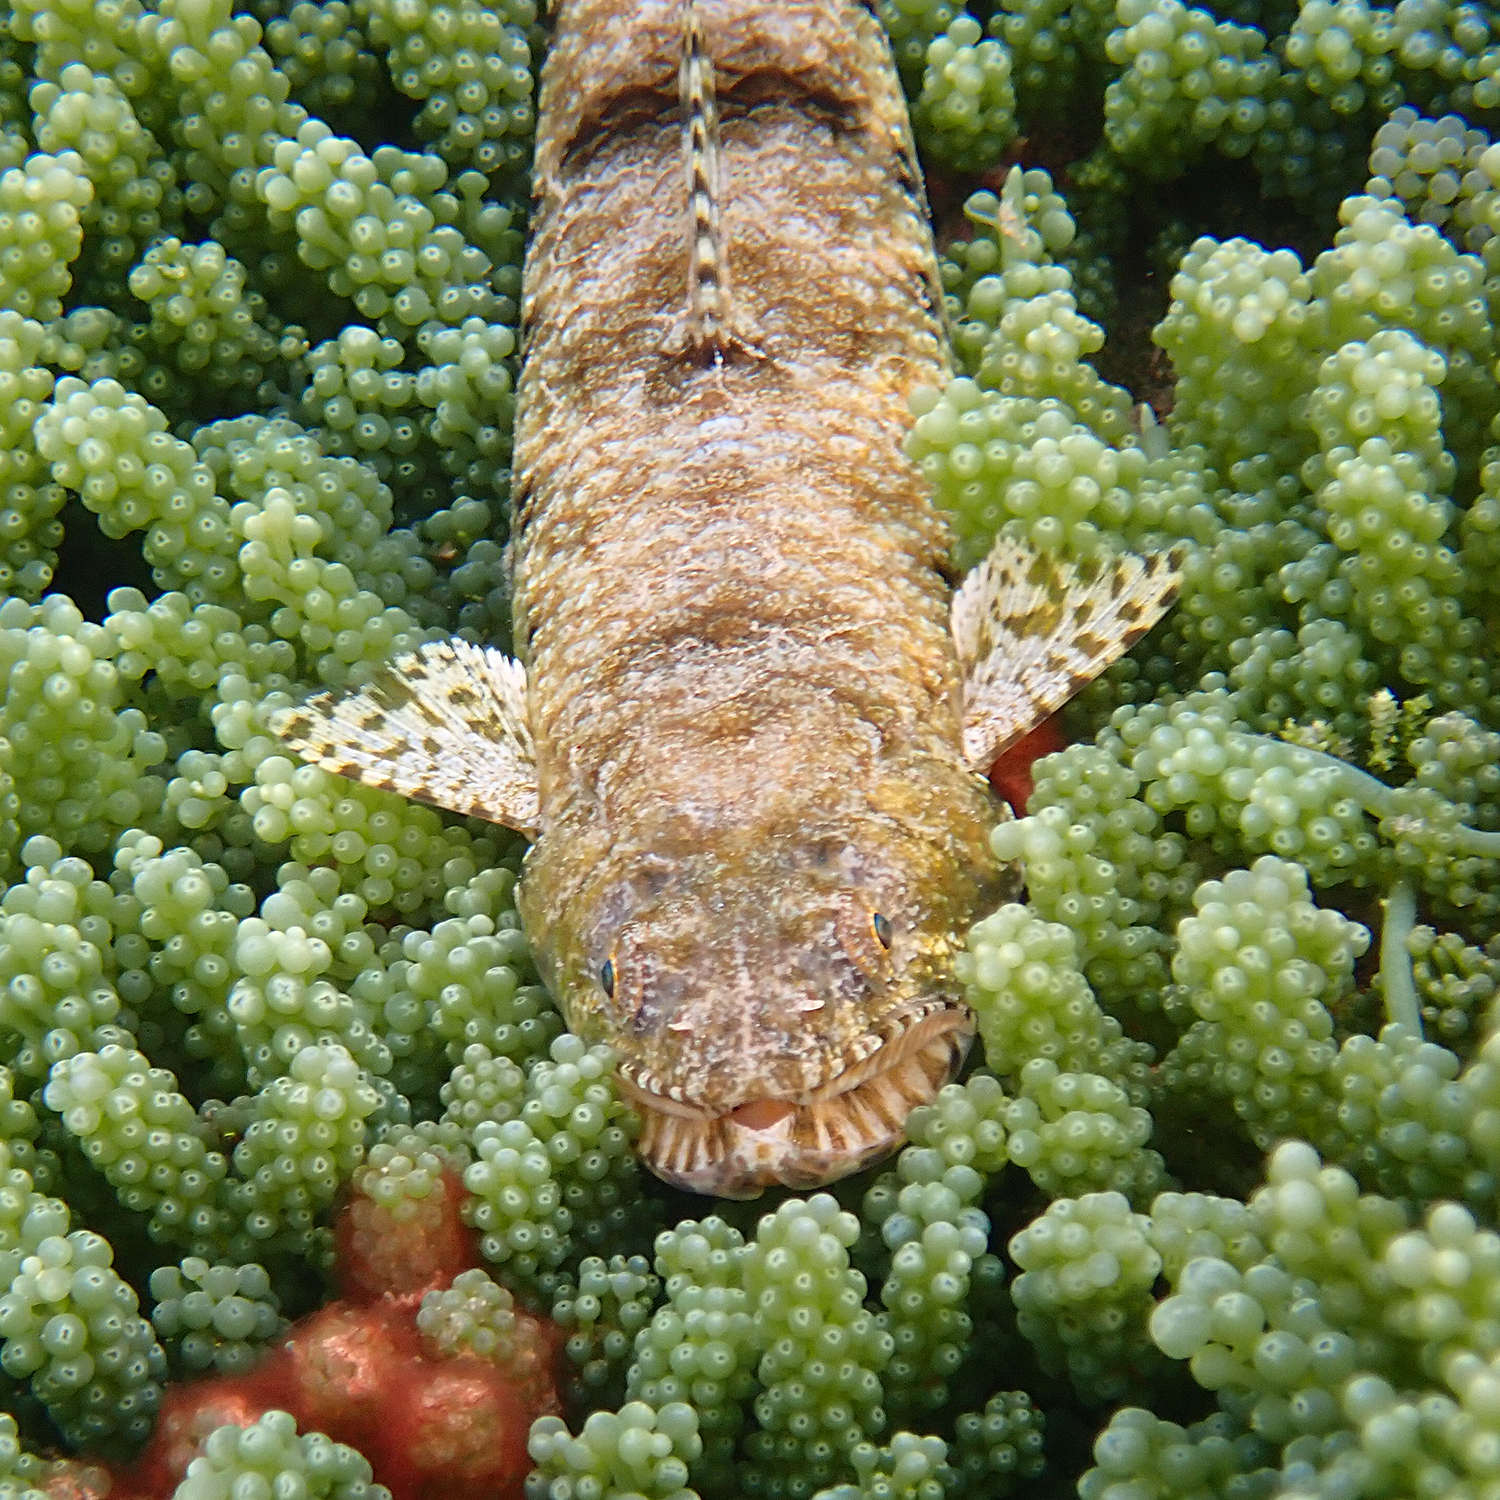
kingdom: Animalia
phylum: Chordata
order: Aulopiformes
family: Synodontidae
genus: Saurida
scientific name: Saurida nebulosa
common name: Nebulous lizardfish
